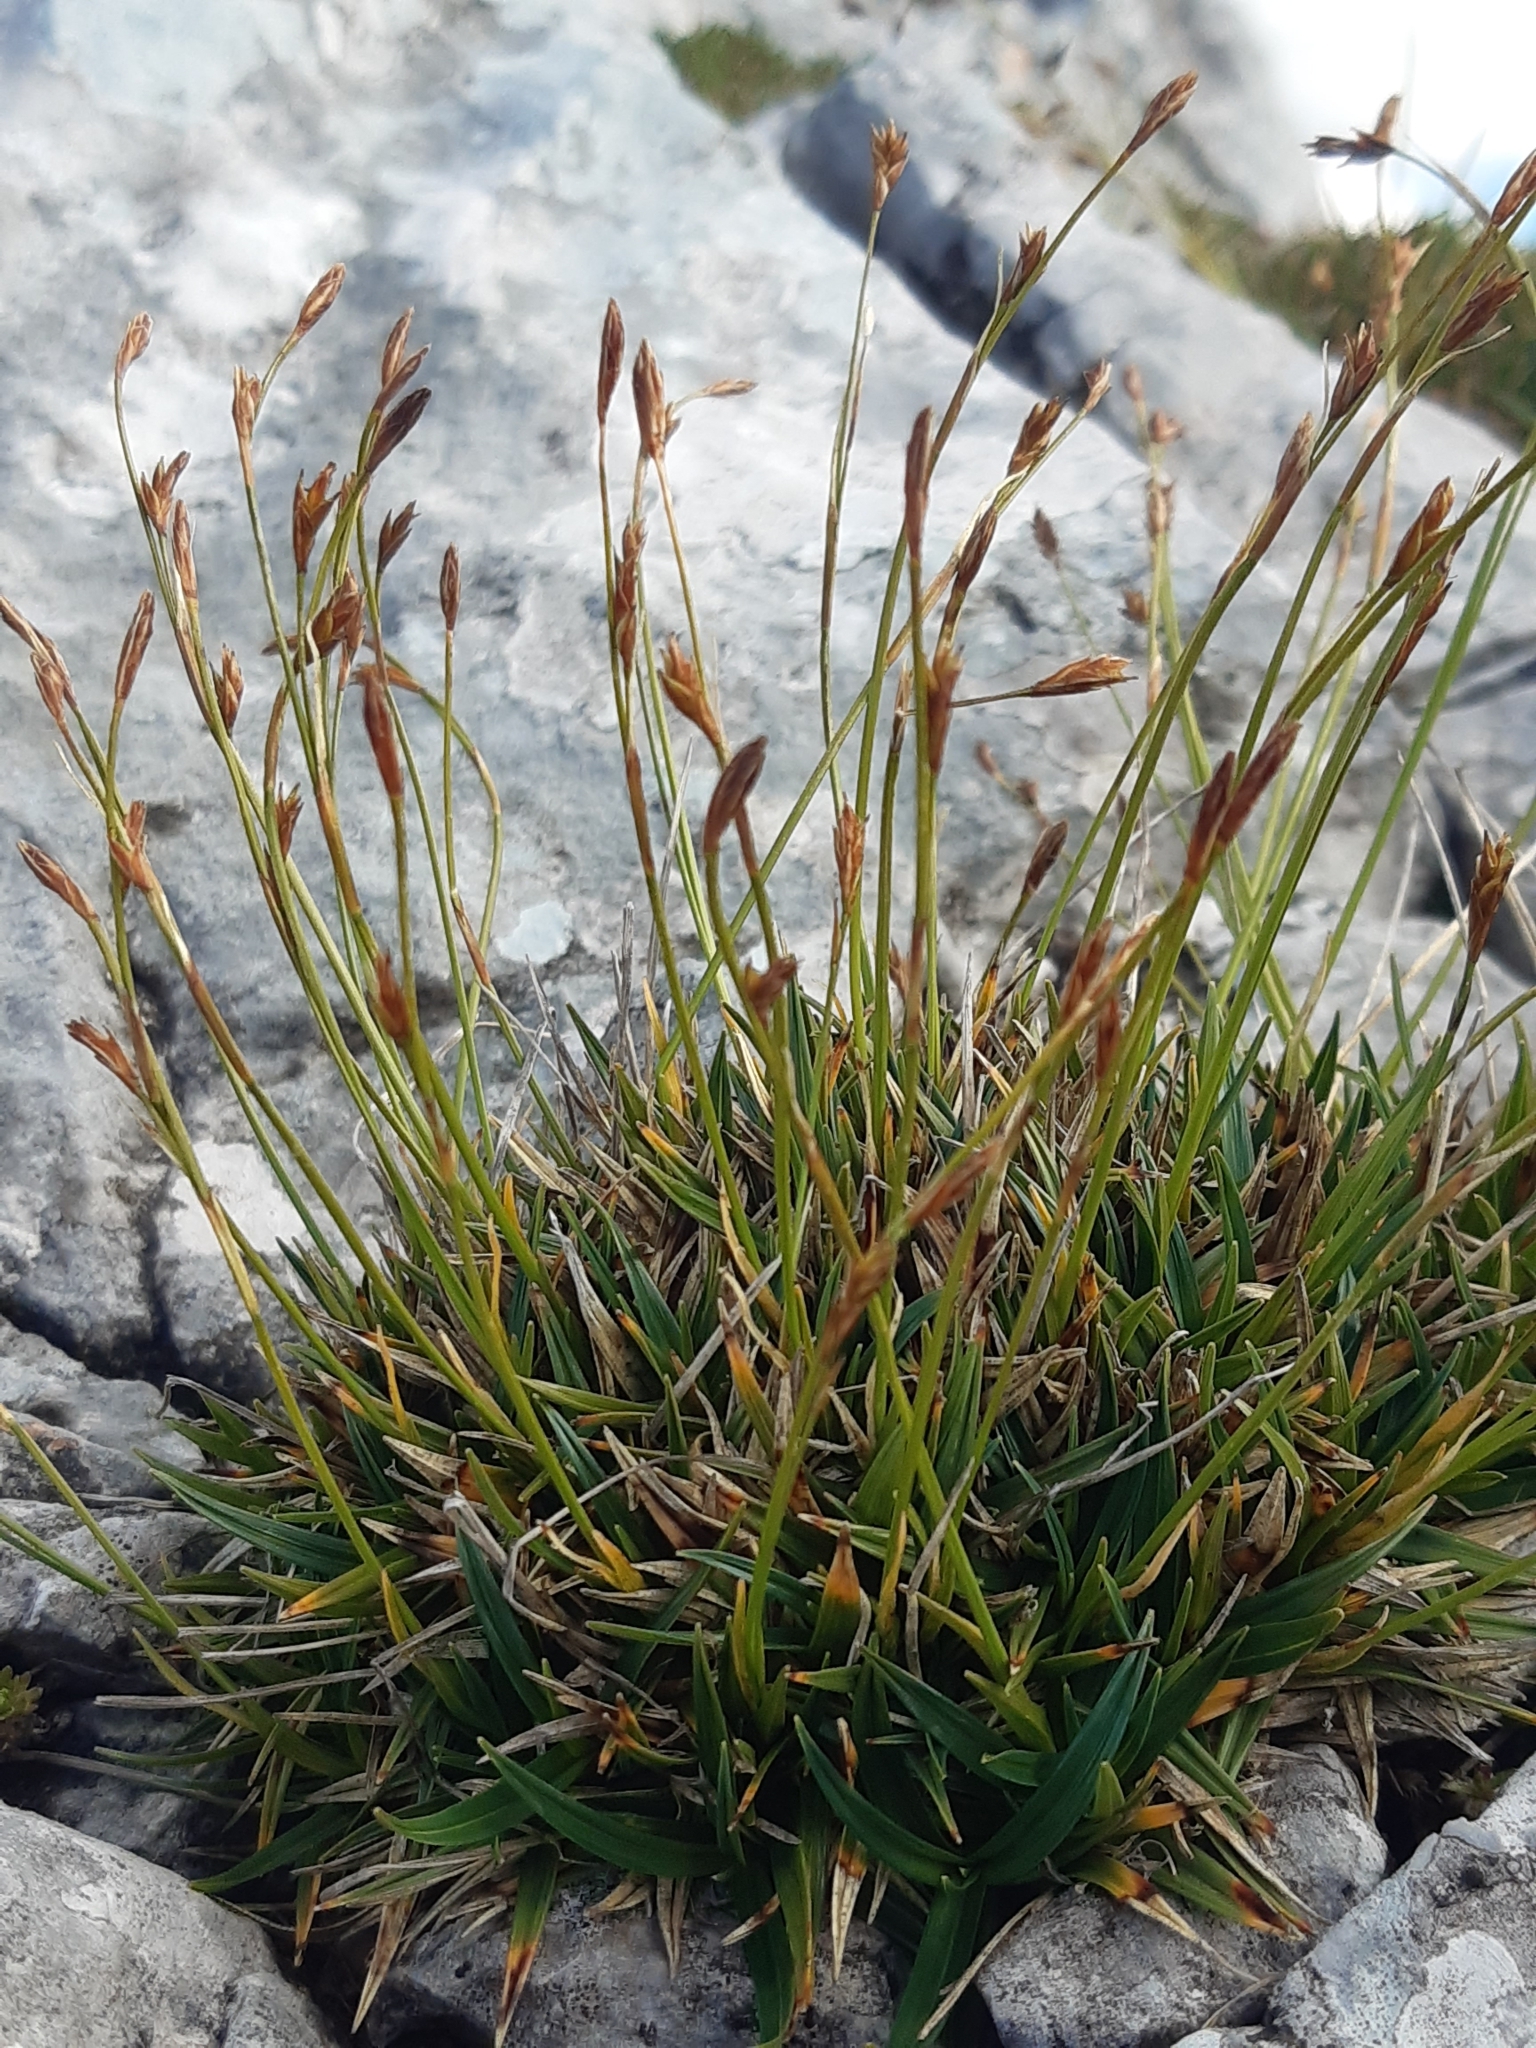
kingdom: Plantae
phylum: Tracheophyta
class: Liliopsida
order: Poales
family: Cyperaceae
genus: Carex
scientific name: Carex firma
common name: Dwarf pillow sedge
